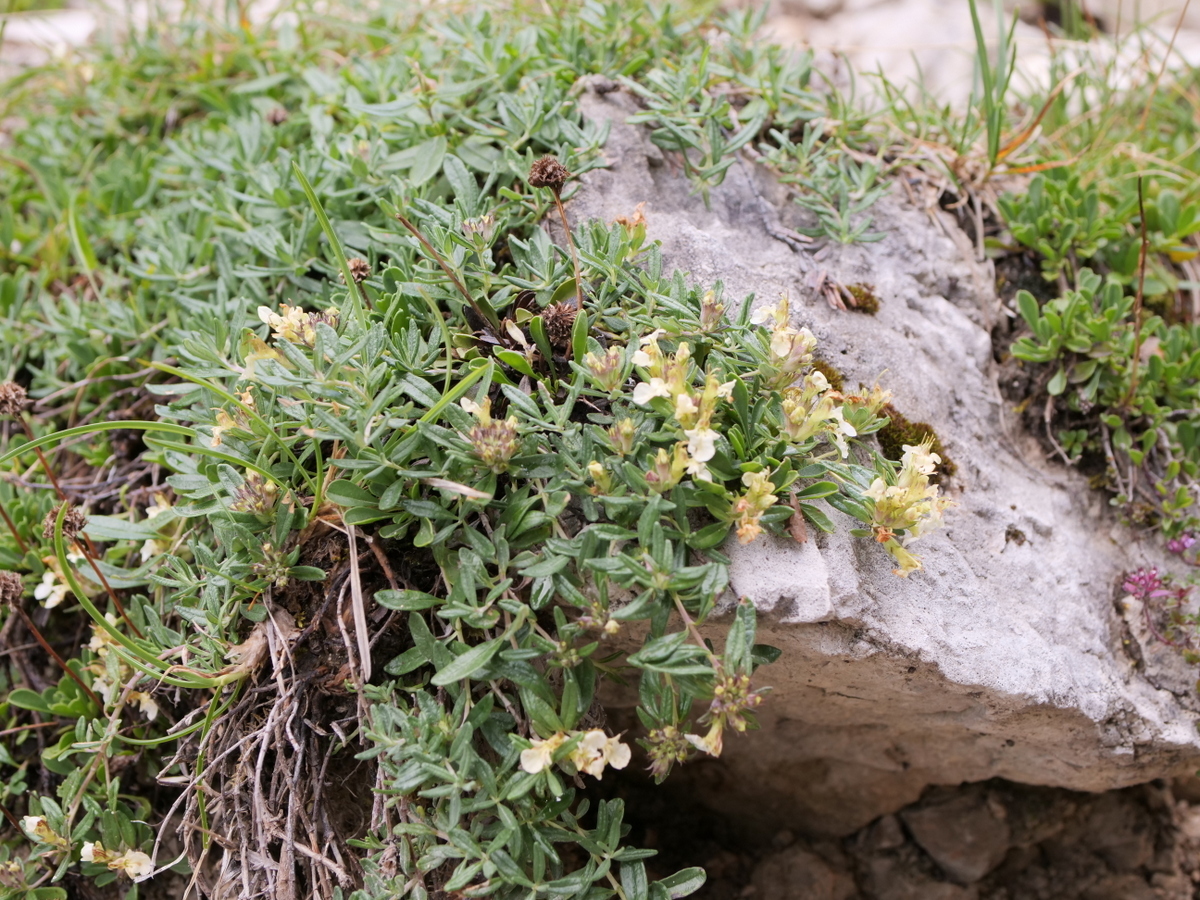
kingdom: Plantae
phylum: Tracheophyta
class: Magnoliopsida
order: Lamiales
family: Lamiaceae
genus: Teucrium
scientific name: Teucrium montanum
